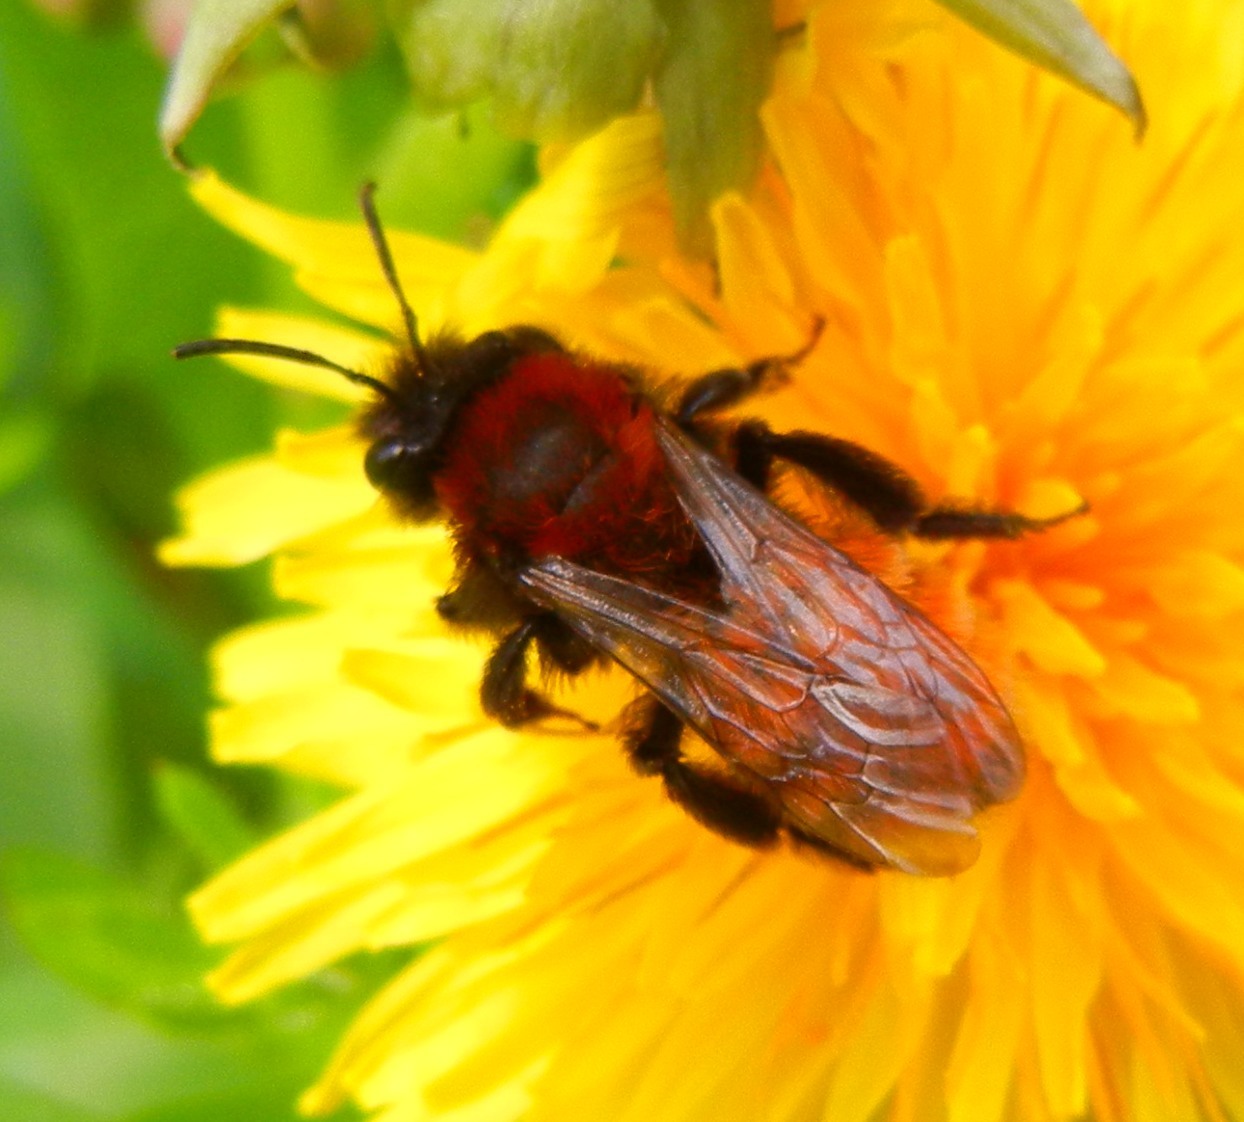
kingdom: Animalia
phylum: Arthropoda
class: Insecta
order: Hymenoptera
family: Andrenidae
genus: Andrena
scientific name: Andrena fulva
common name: Tawny mining bee
